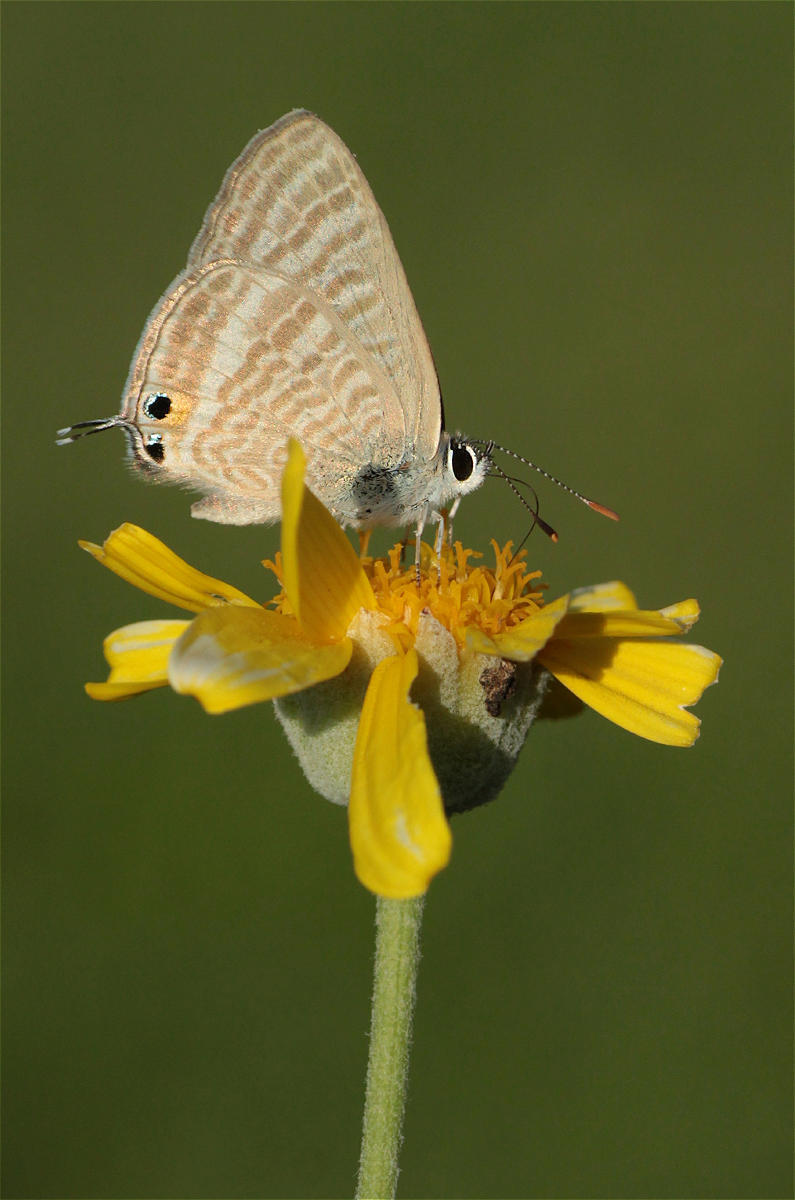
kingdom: Animalia
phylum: Arthropoda
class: Insecta
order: Lepidoptera
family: Lycaenidae
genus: Lampides
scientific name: Lampides boeticus
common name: Long-tailed blue
